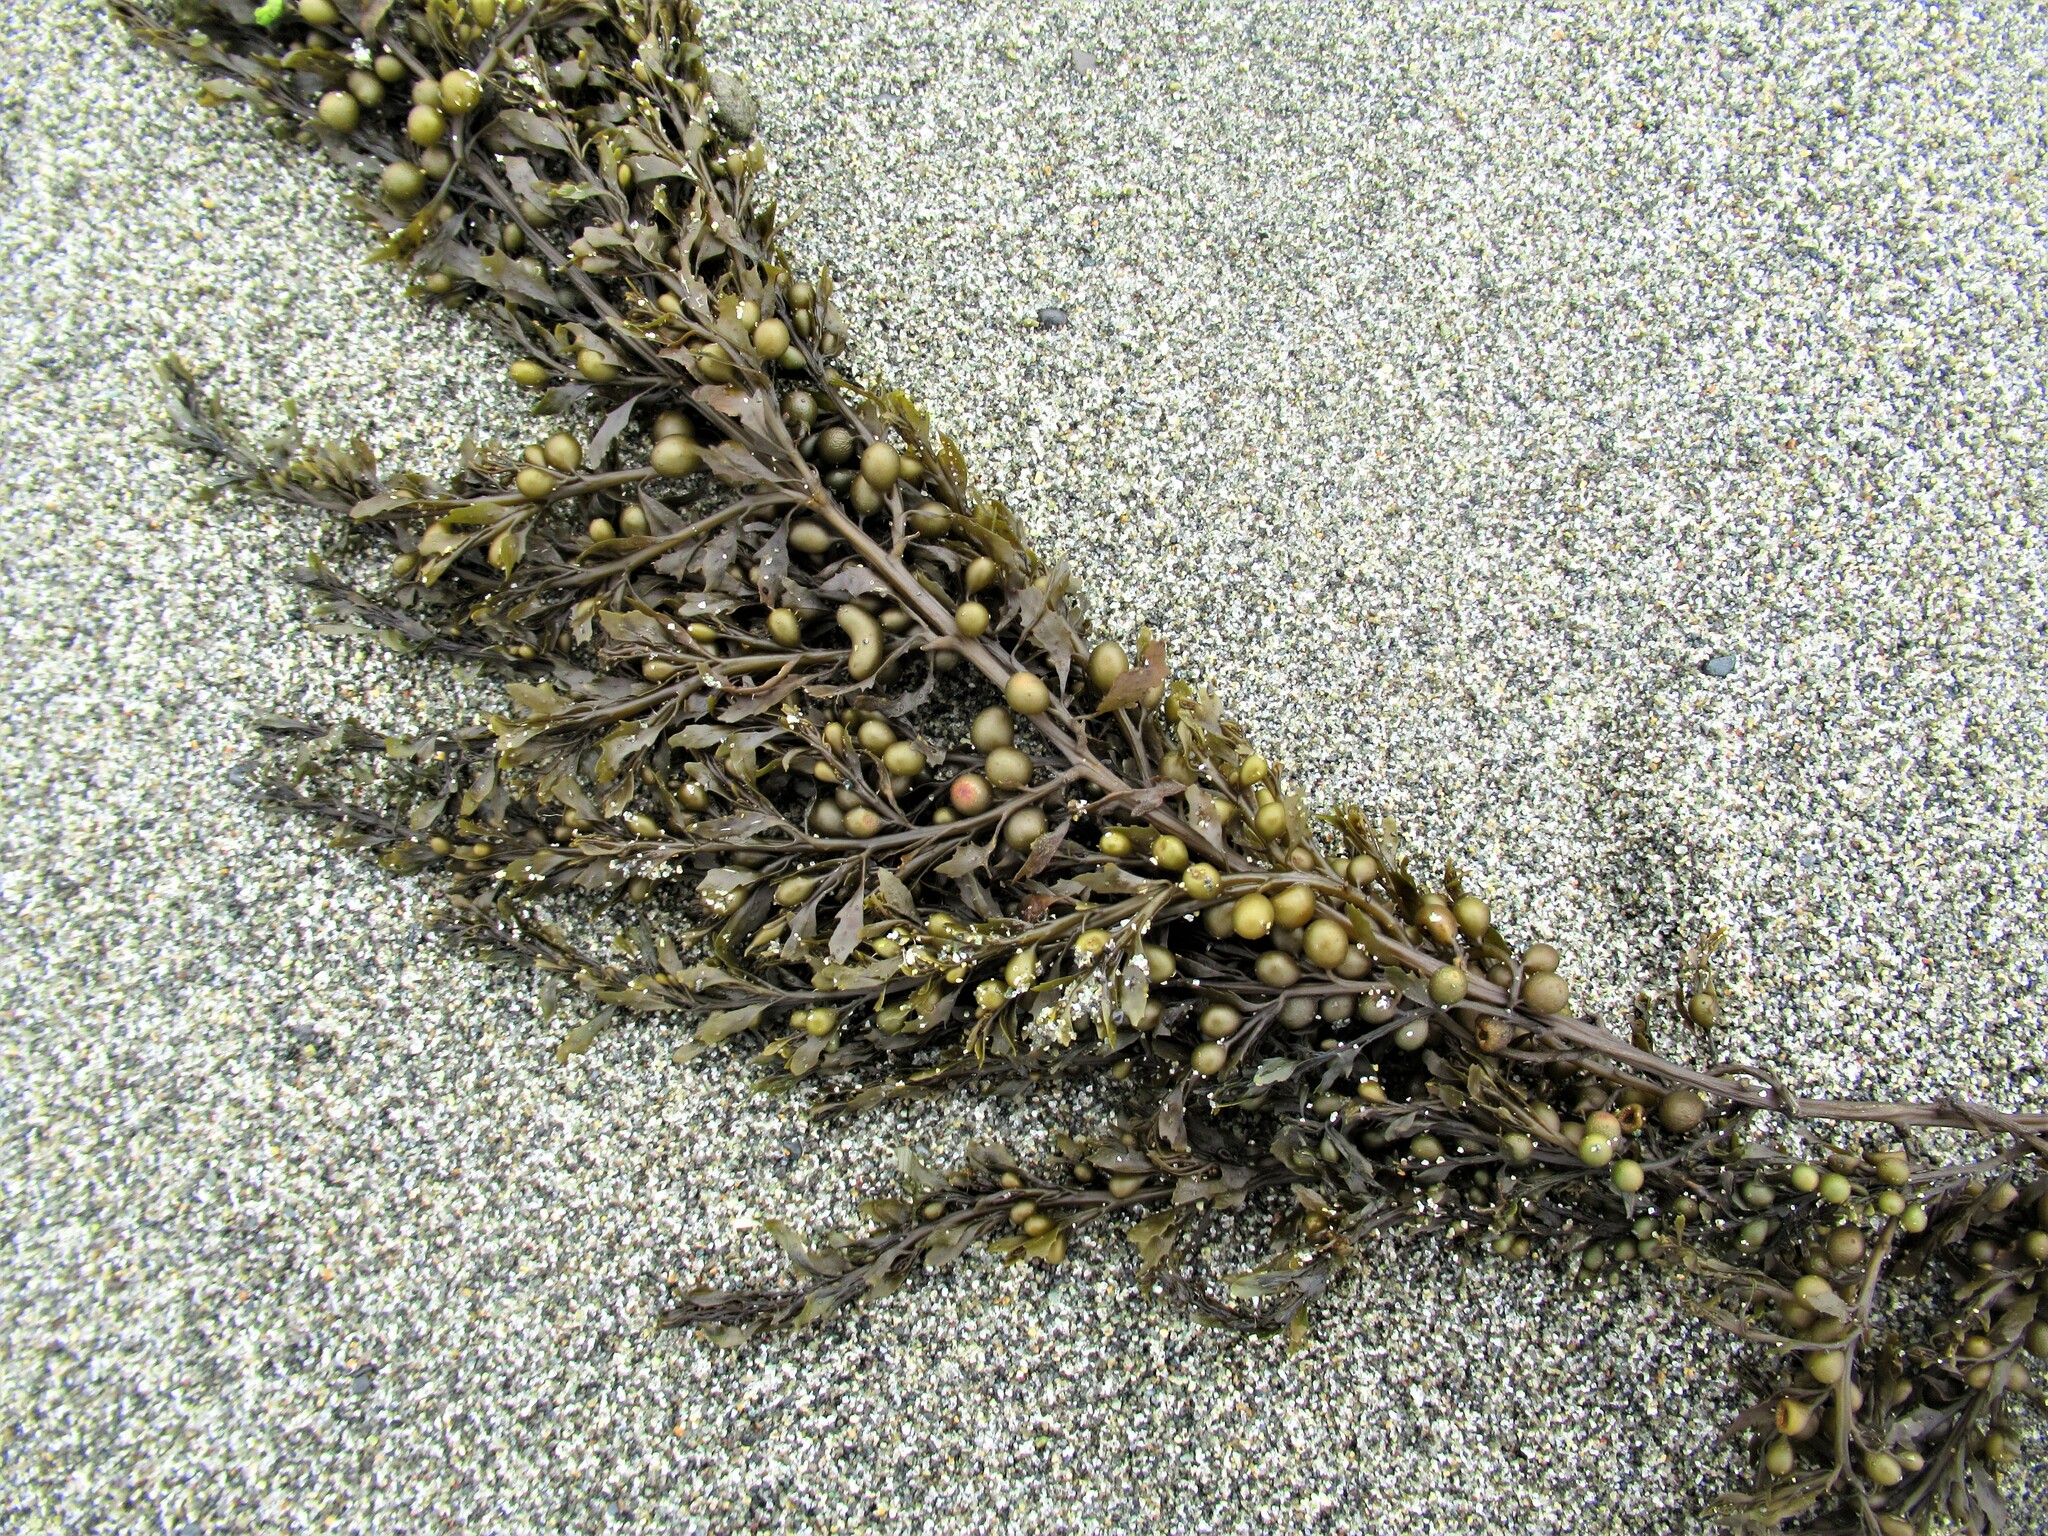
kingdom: Chromista
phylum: Ochrophyta
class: Phaeophyceae
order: Fucales
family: Sargassaceae
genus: Sargassum
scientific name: Sargassum muticum
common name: Japweed
